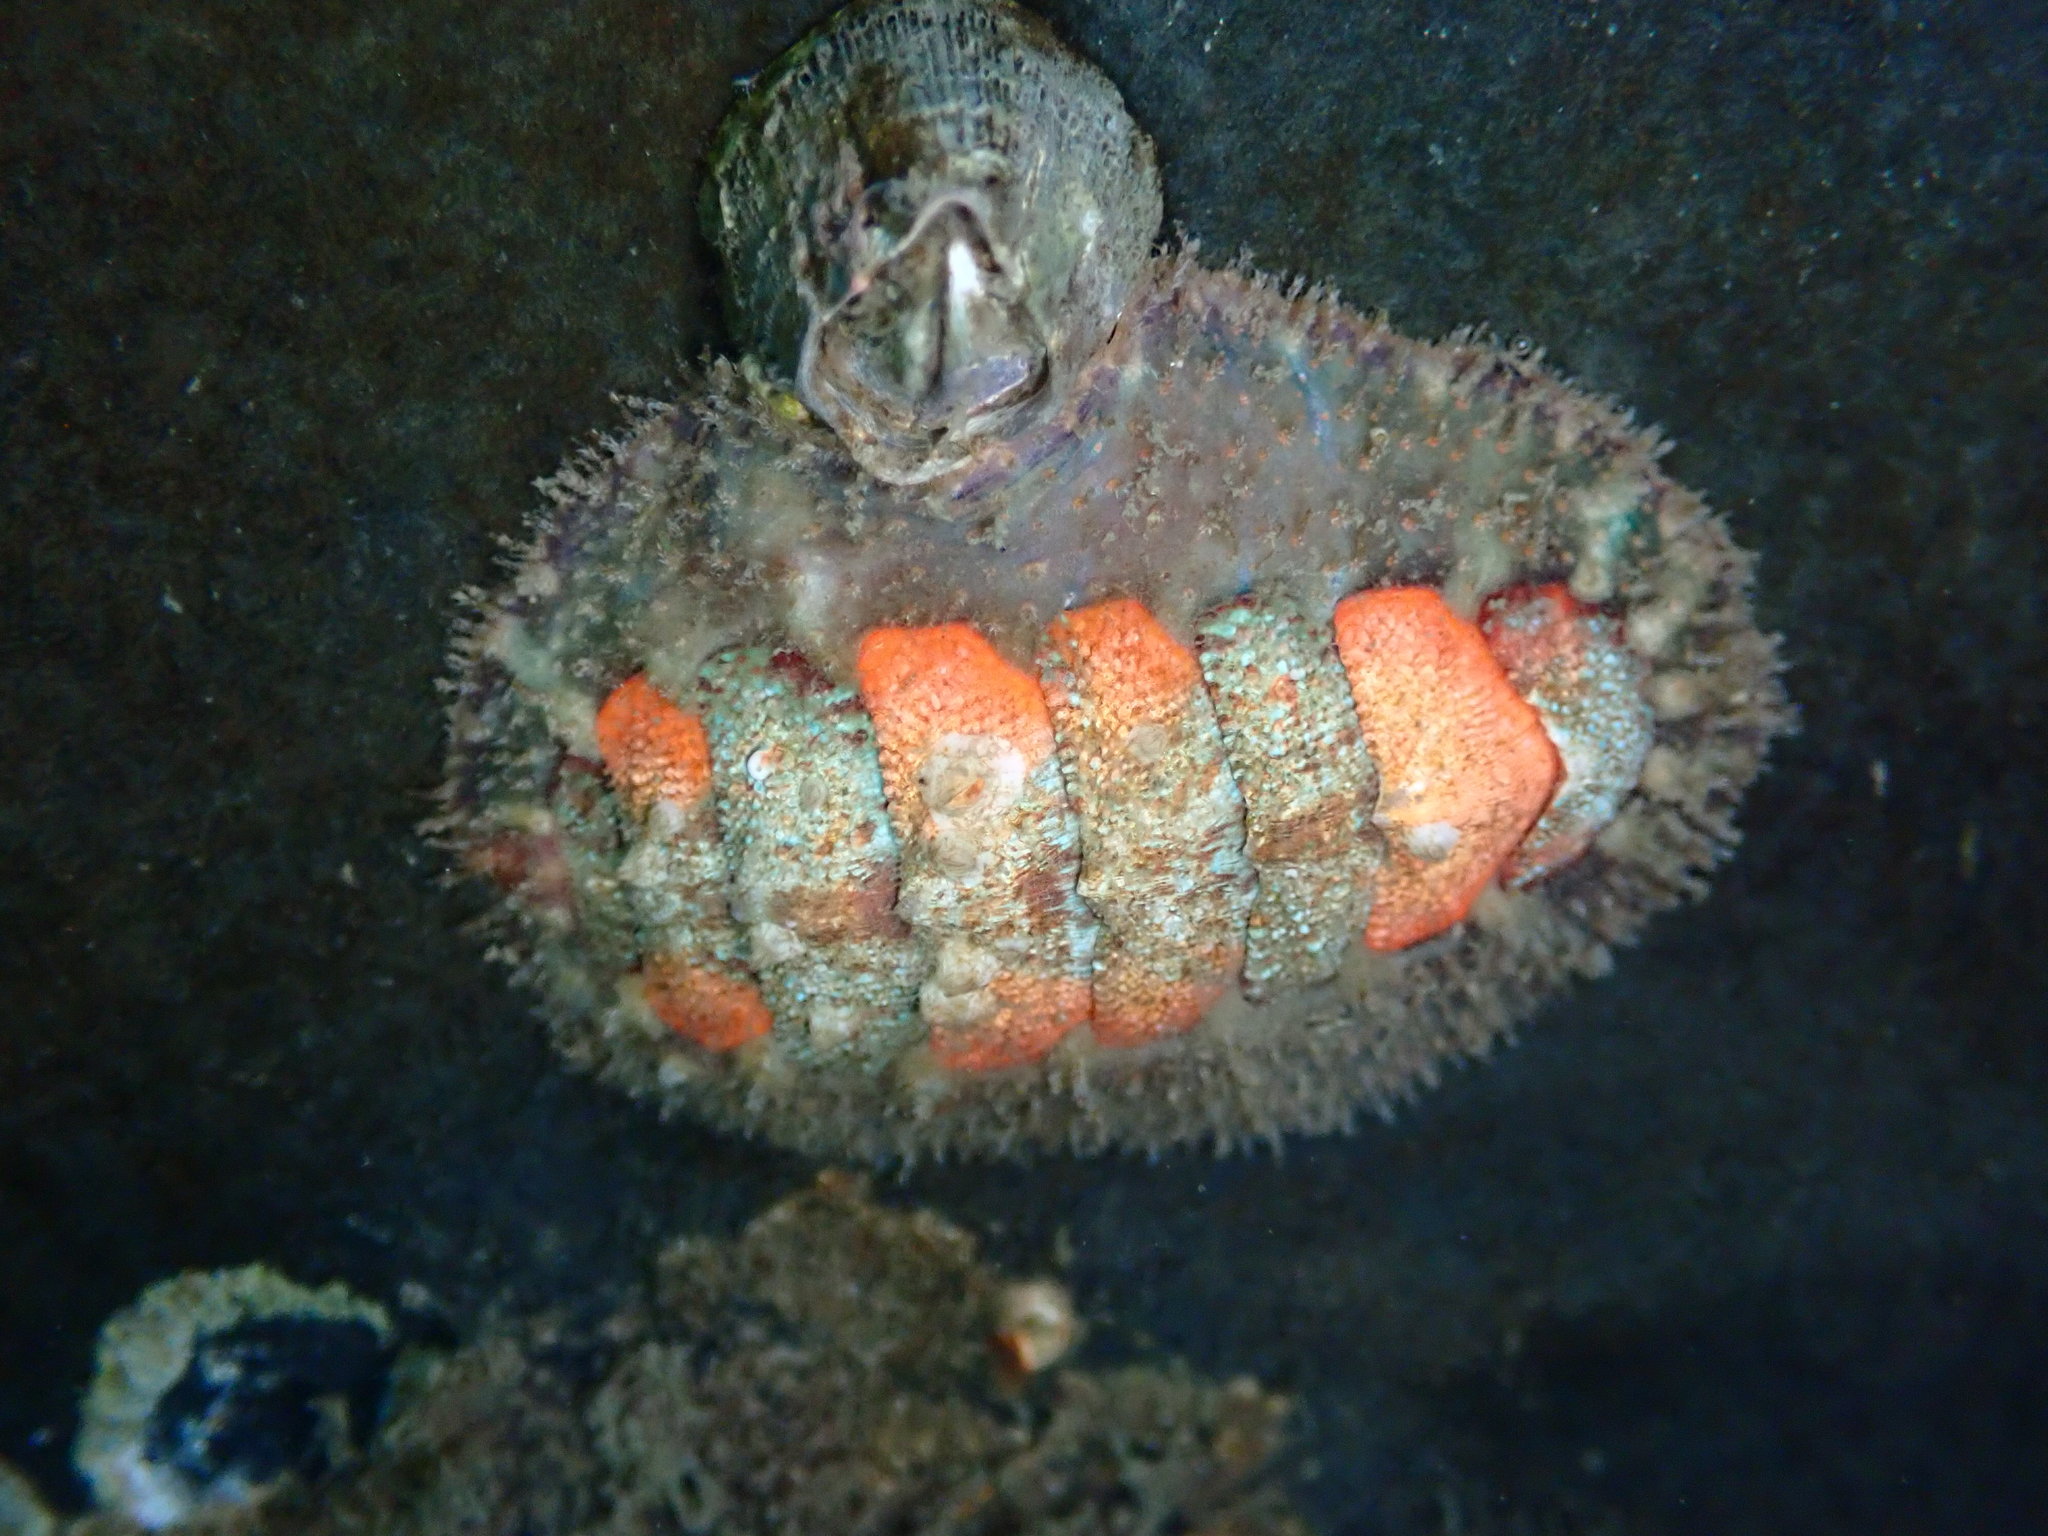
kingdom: Animalia
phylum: Mollusca
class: Polyplacophora
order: Chitonida
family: Mopaliidae
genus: Mopalia
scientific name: Mopalia spectabilis
